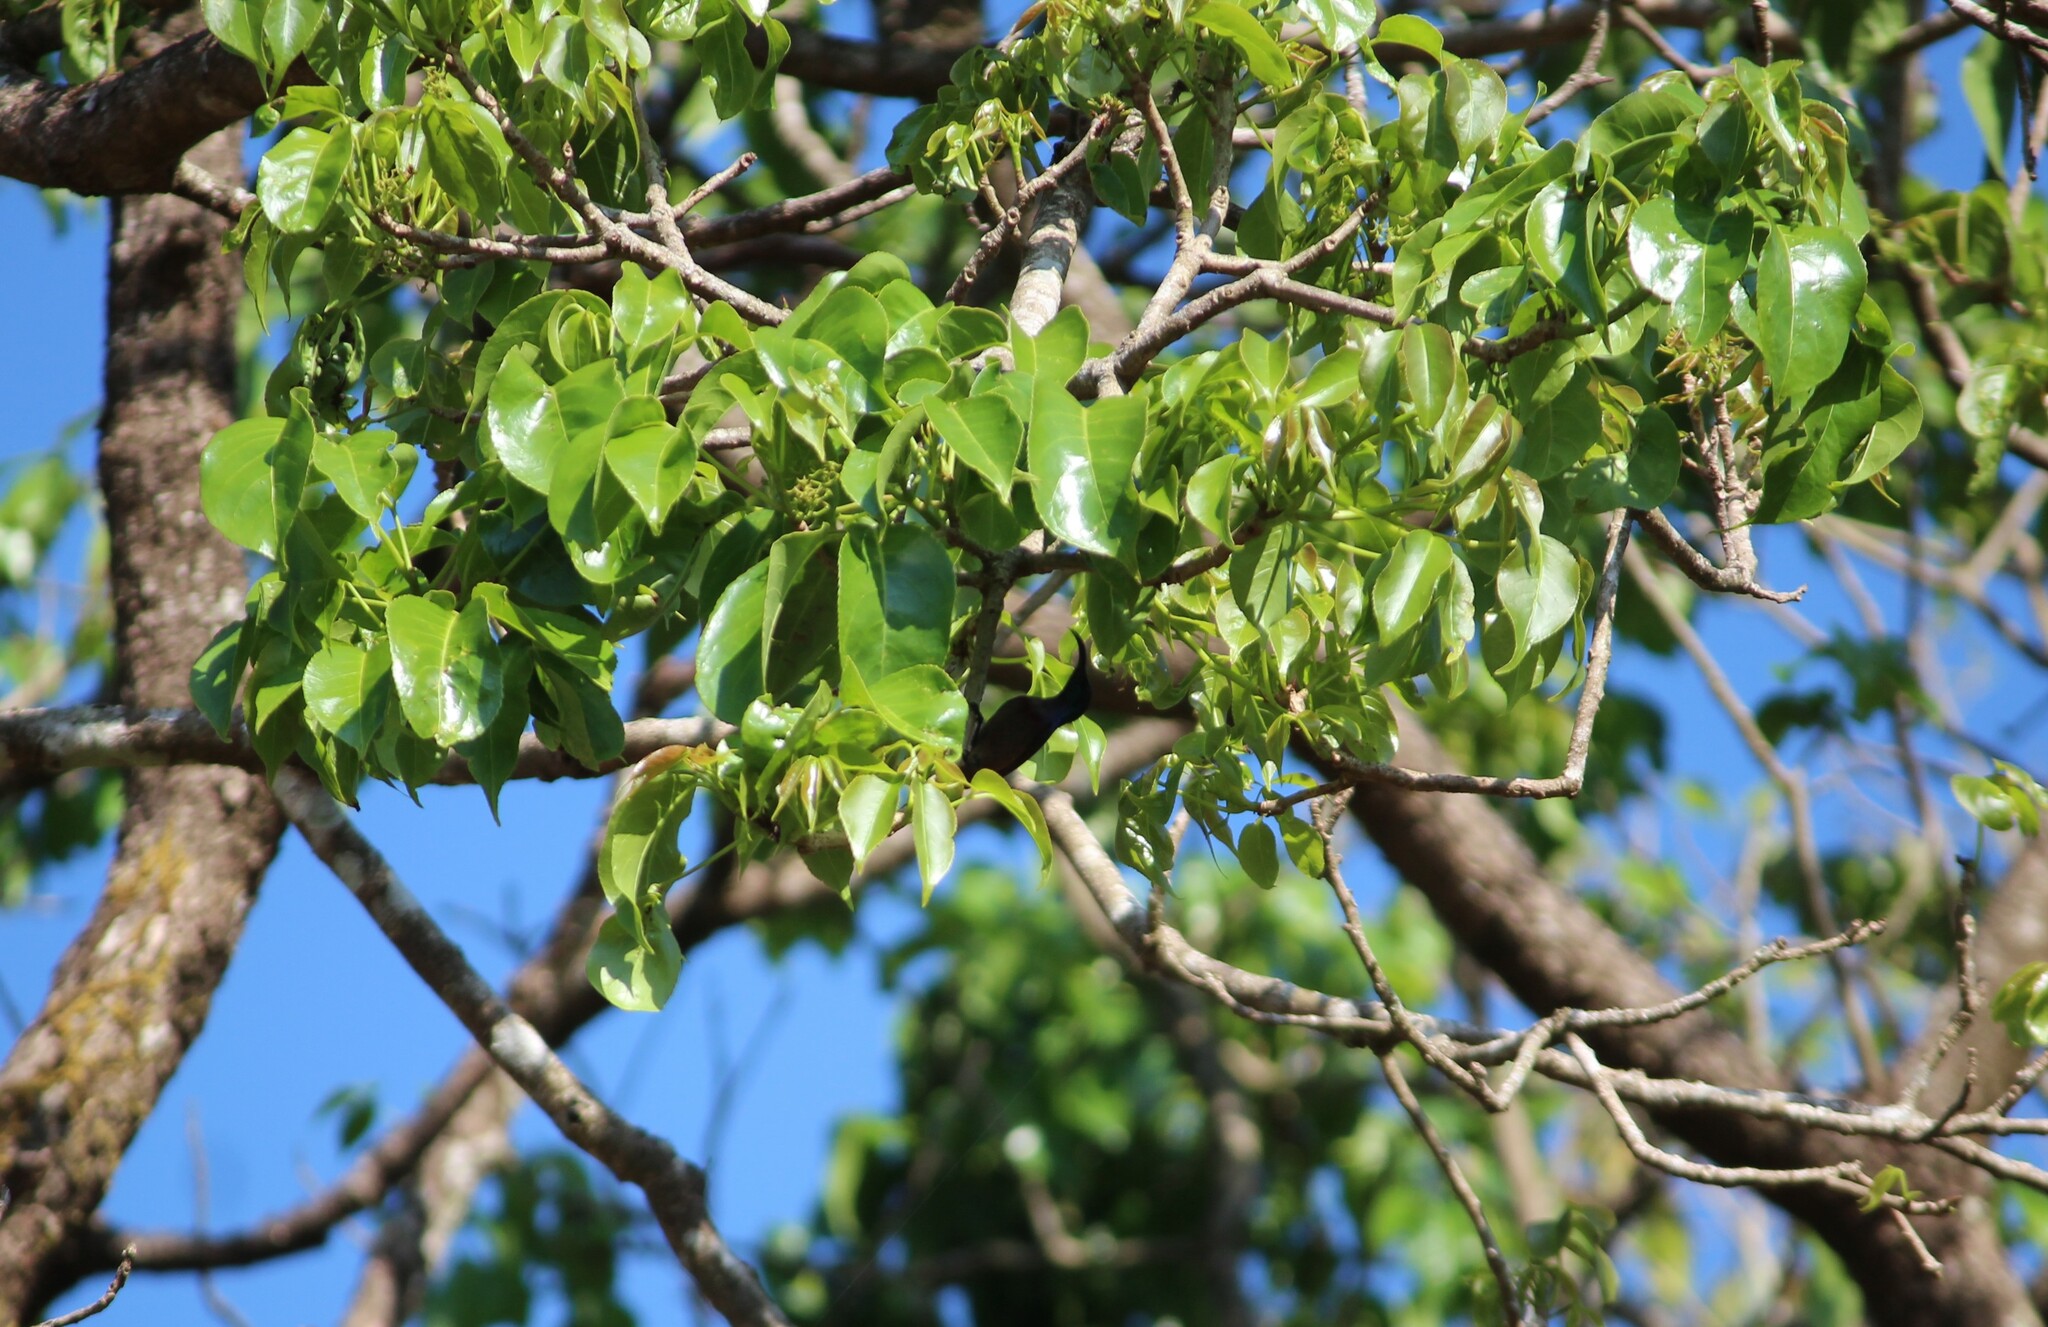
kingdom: Plantae
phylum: Tracheophyta
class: Magnoliopsida
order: Malpighiales
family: Phyllanthaceae
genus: Bischofia
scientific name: Bischofia javanica
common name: Javanese bishopwood
